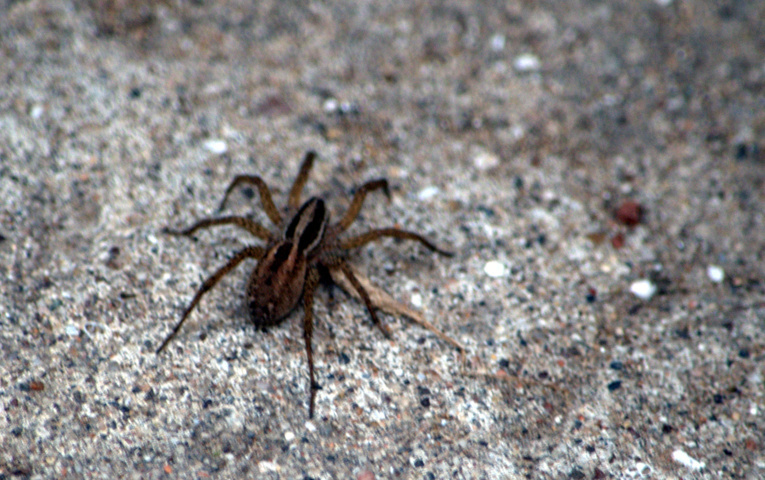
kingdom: Animalia
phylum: Arthropoda
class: Arachnida
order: Araneae
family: Lycosidae
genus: Alopecosa
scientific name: Alopecosa moesta
